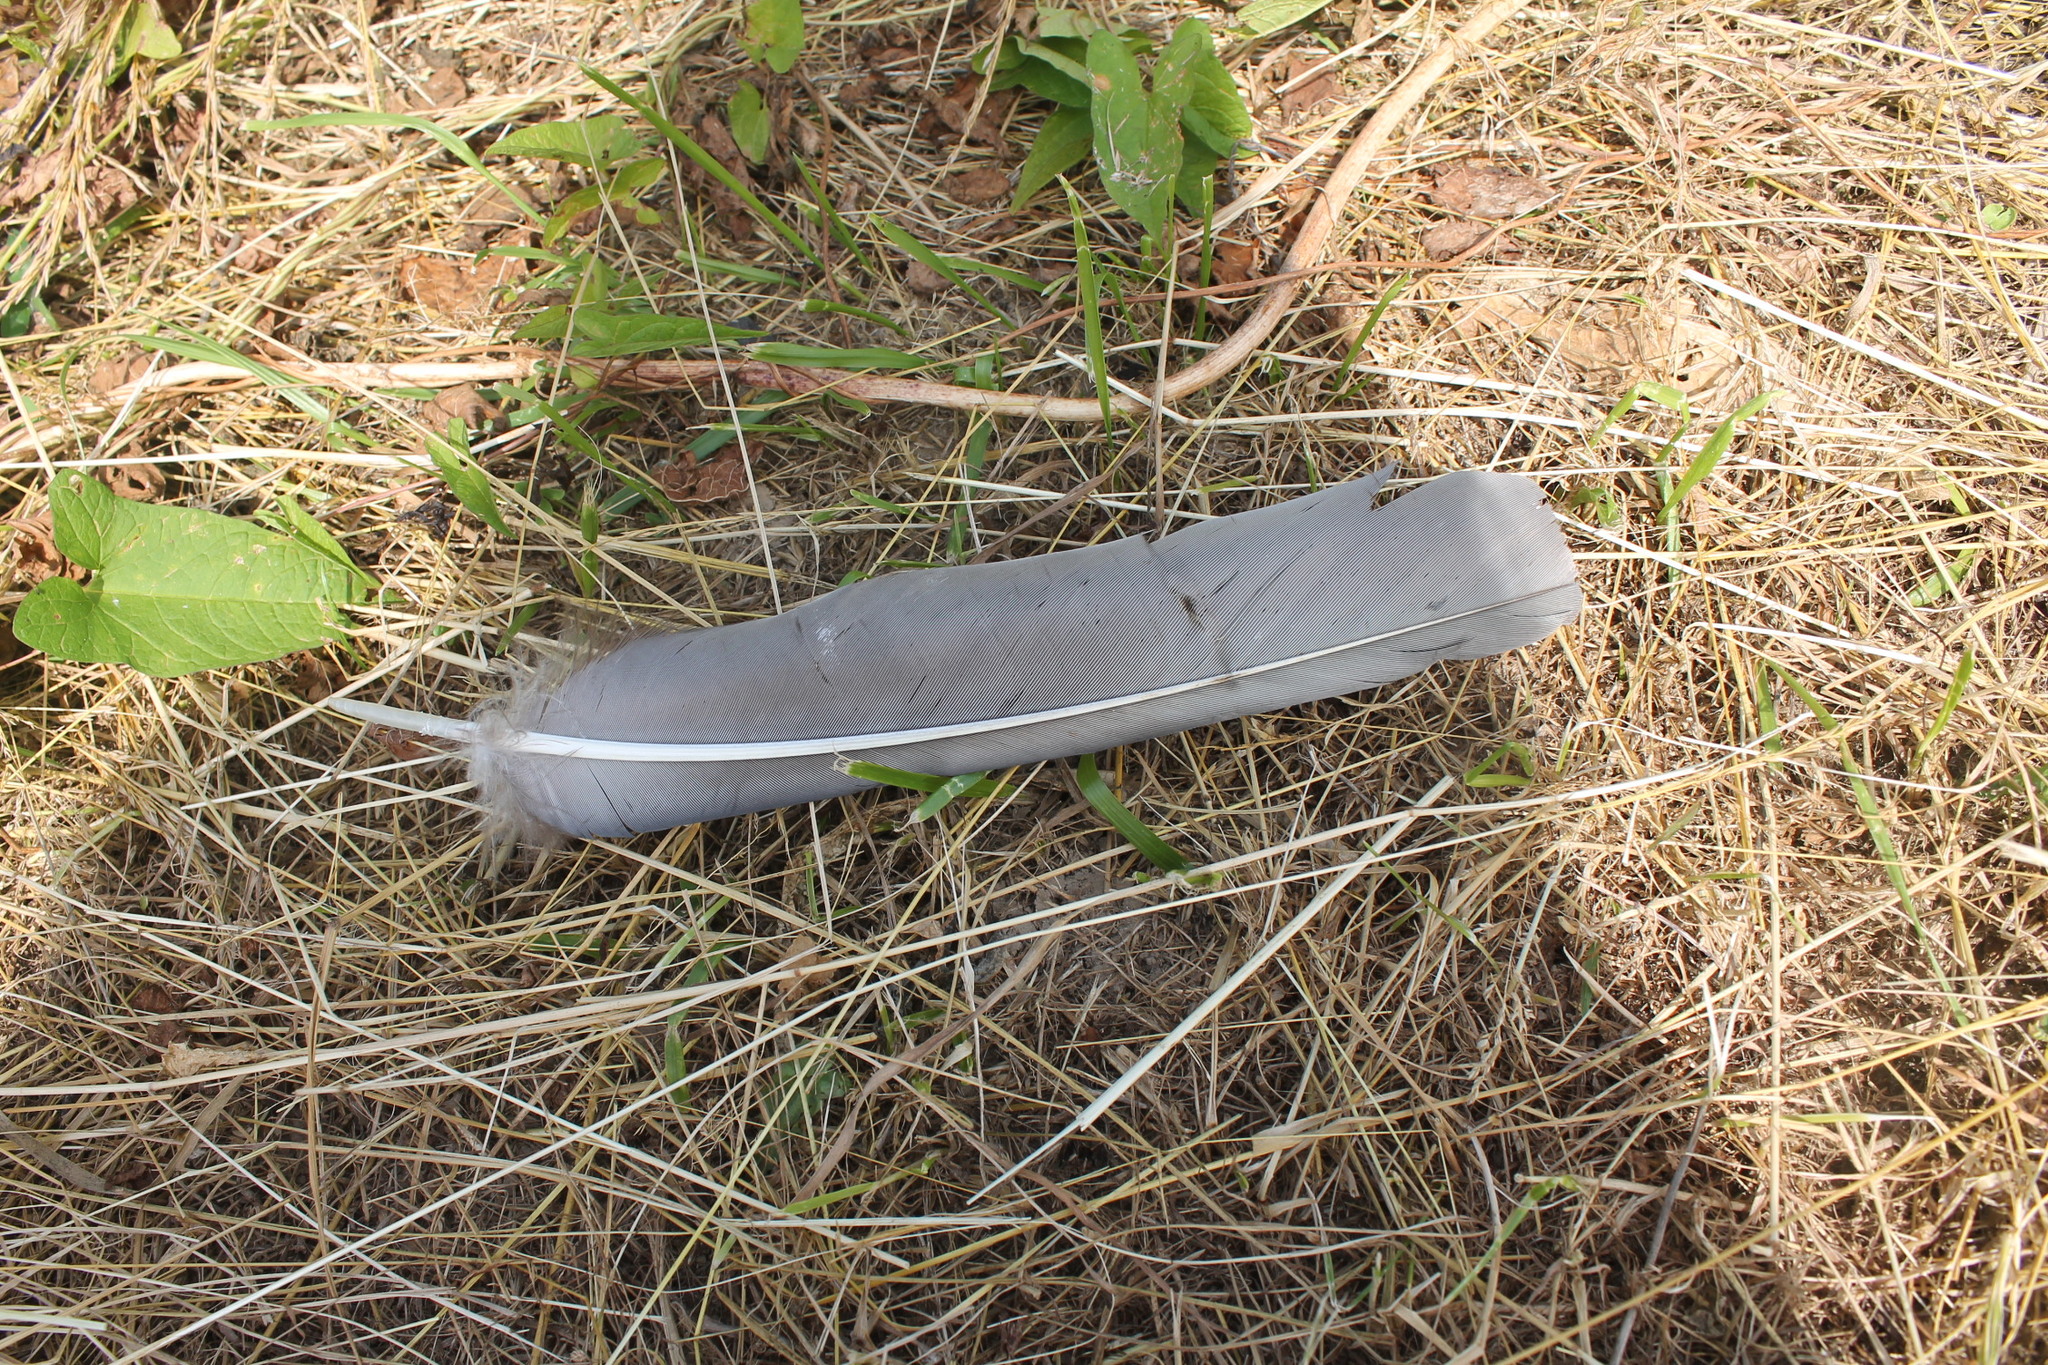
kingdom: Animalia
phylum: Chordata
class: Aves
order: Accipitriformes
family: Cathartidae
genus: Cathartes
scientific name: Cathartes aura
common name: Turkey vulture
